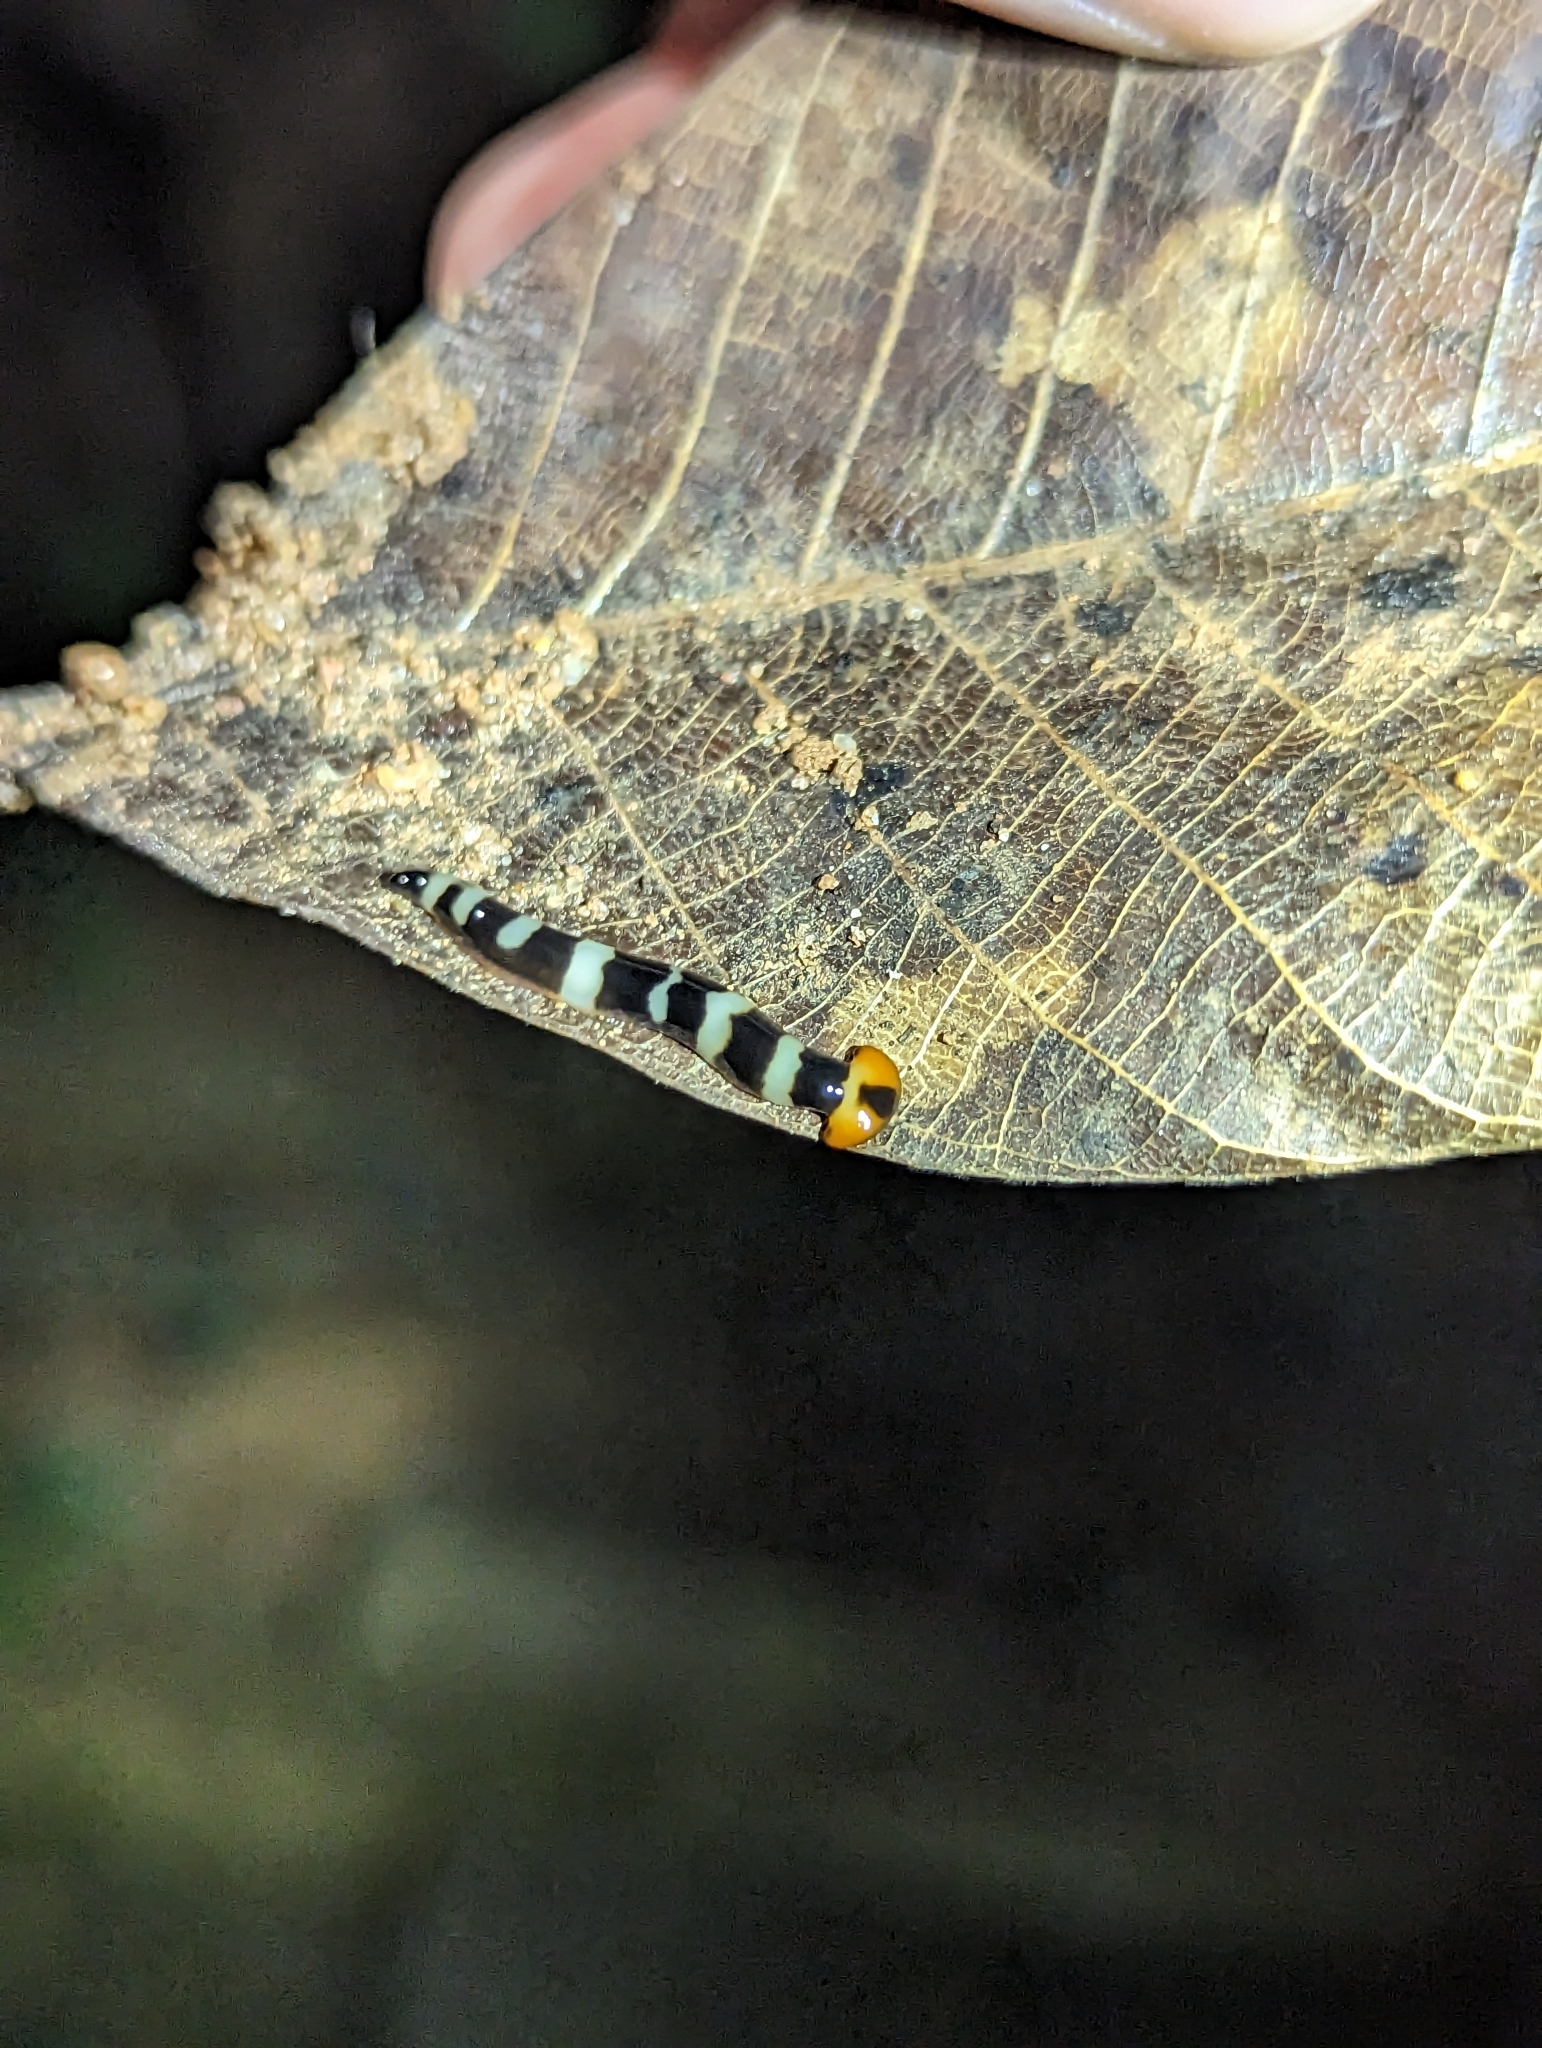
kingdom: Animalia
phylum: Platyhelminthes
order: Tricladida
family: Geoplanidae
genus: Diversibipalium
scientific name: Diversibipalium rauchi
